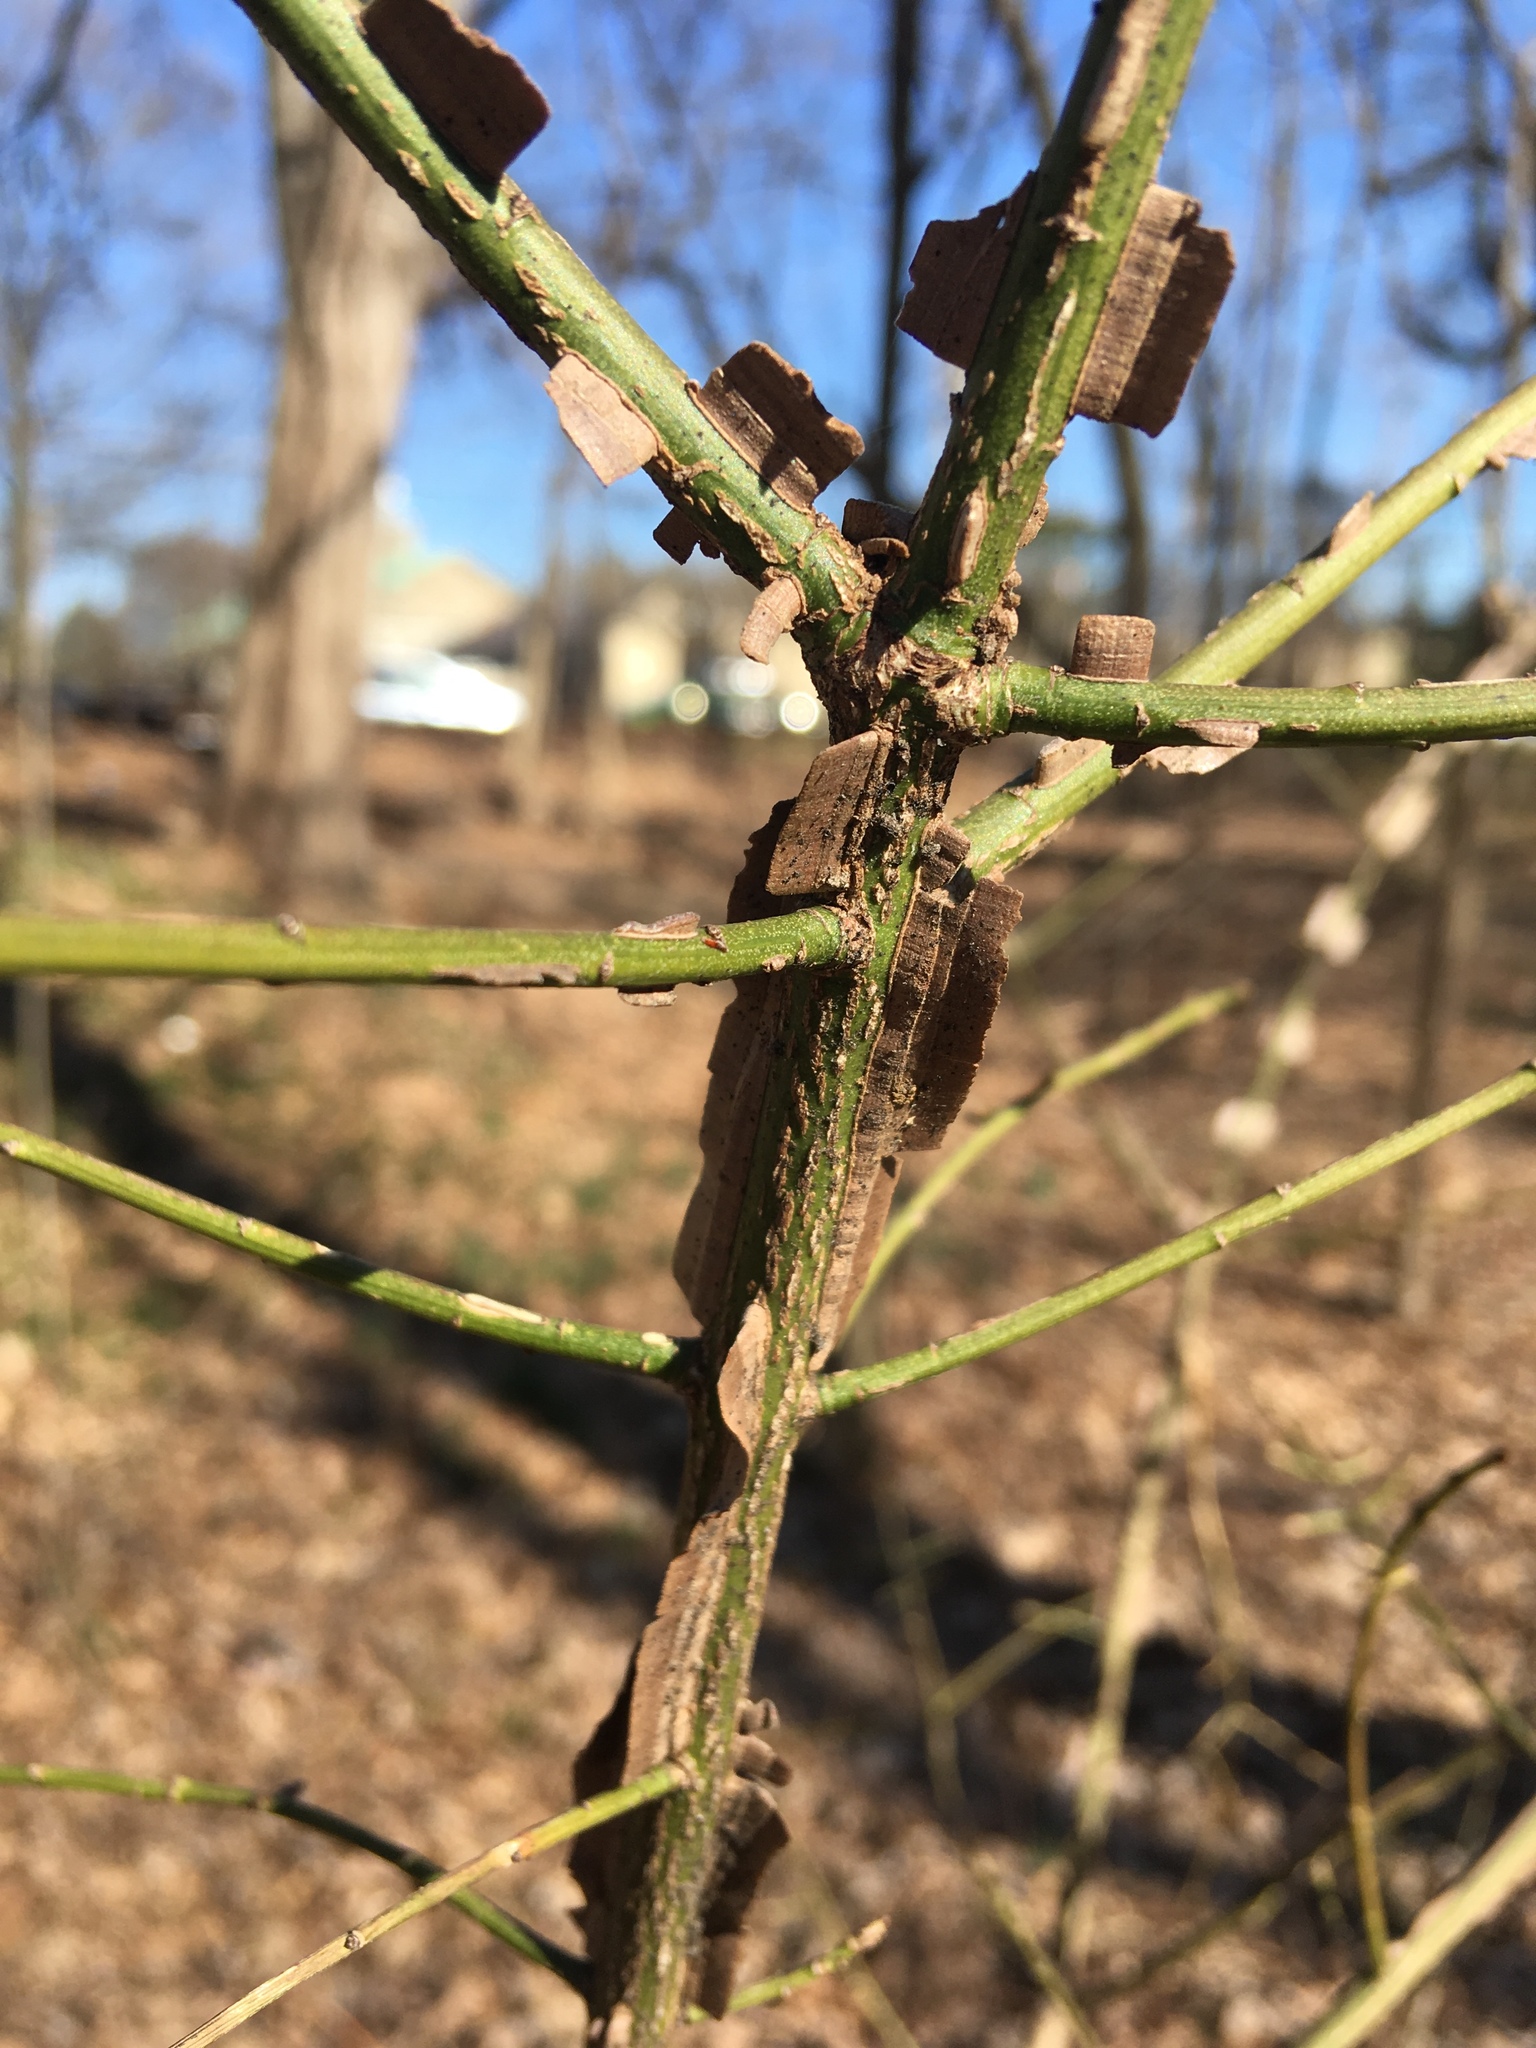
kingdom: Plantae
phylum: Tracheophyta
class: Magnoliopsida
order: Celastrales
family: Celastraceae
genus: Euonymus
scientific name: Euonymus alatus
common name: Winged euonymus
